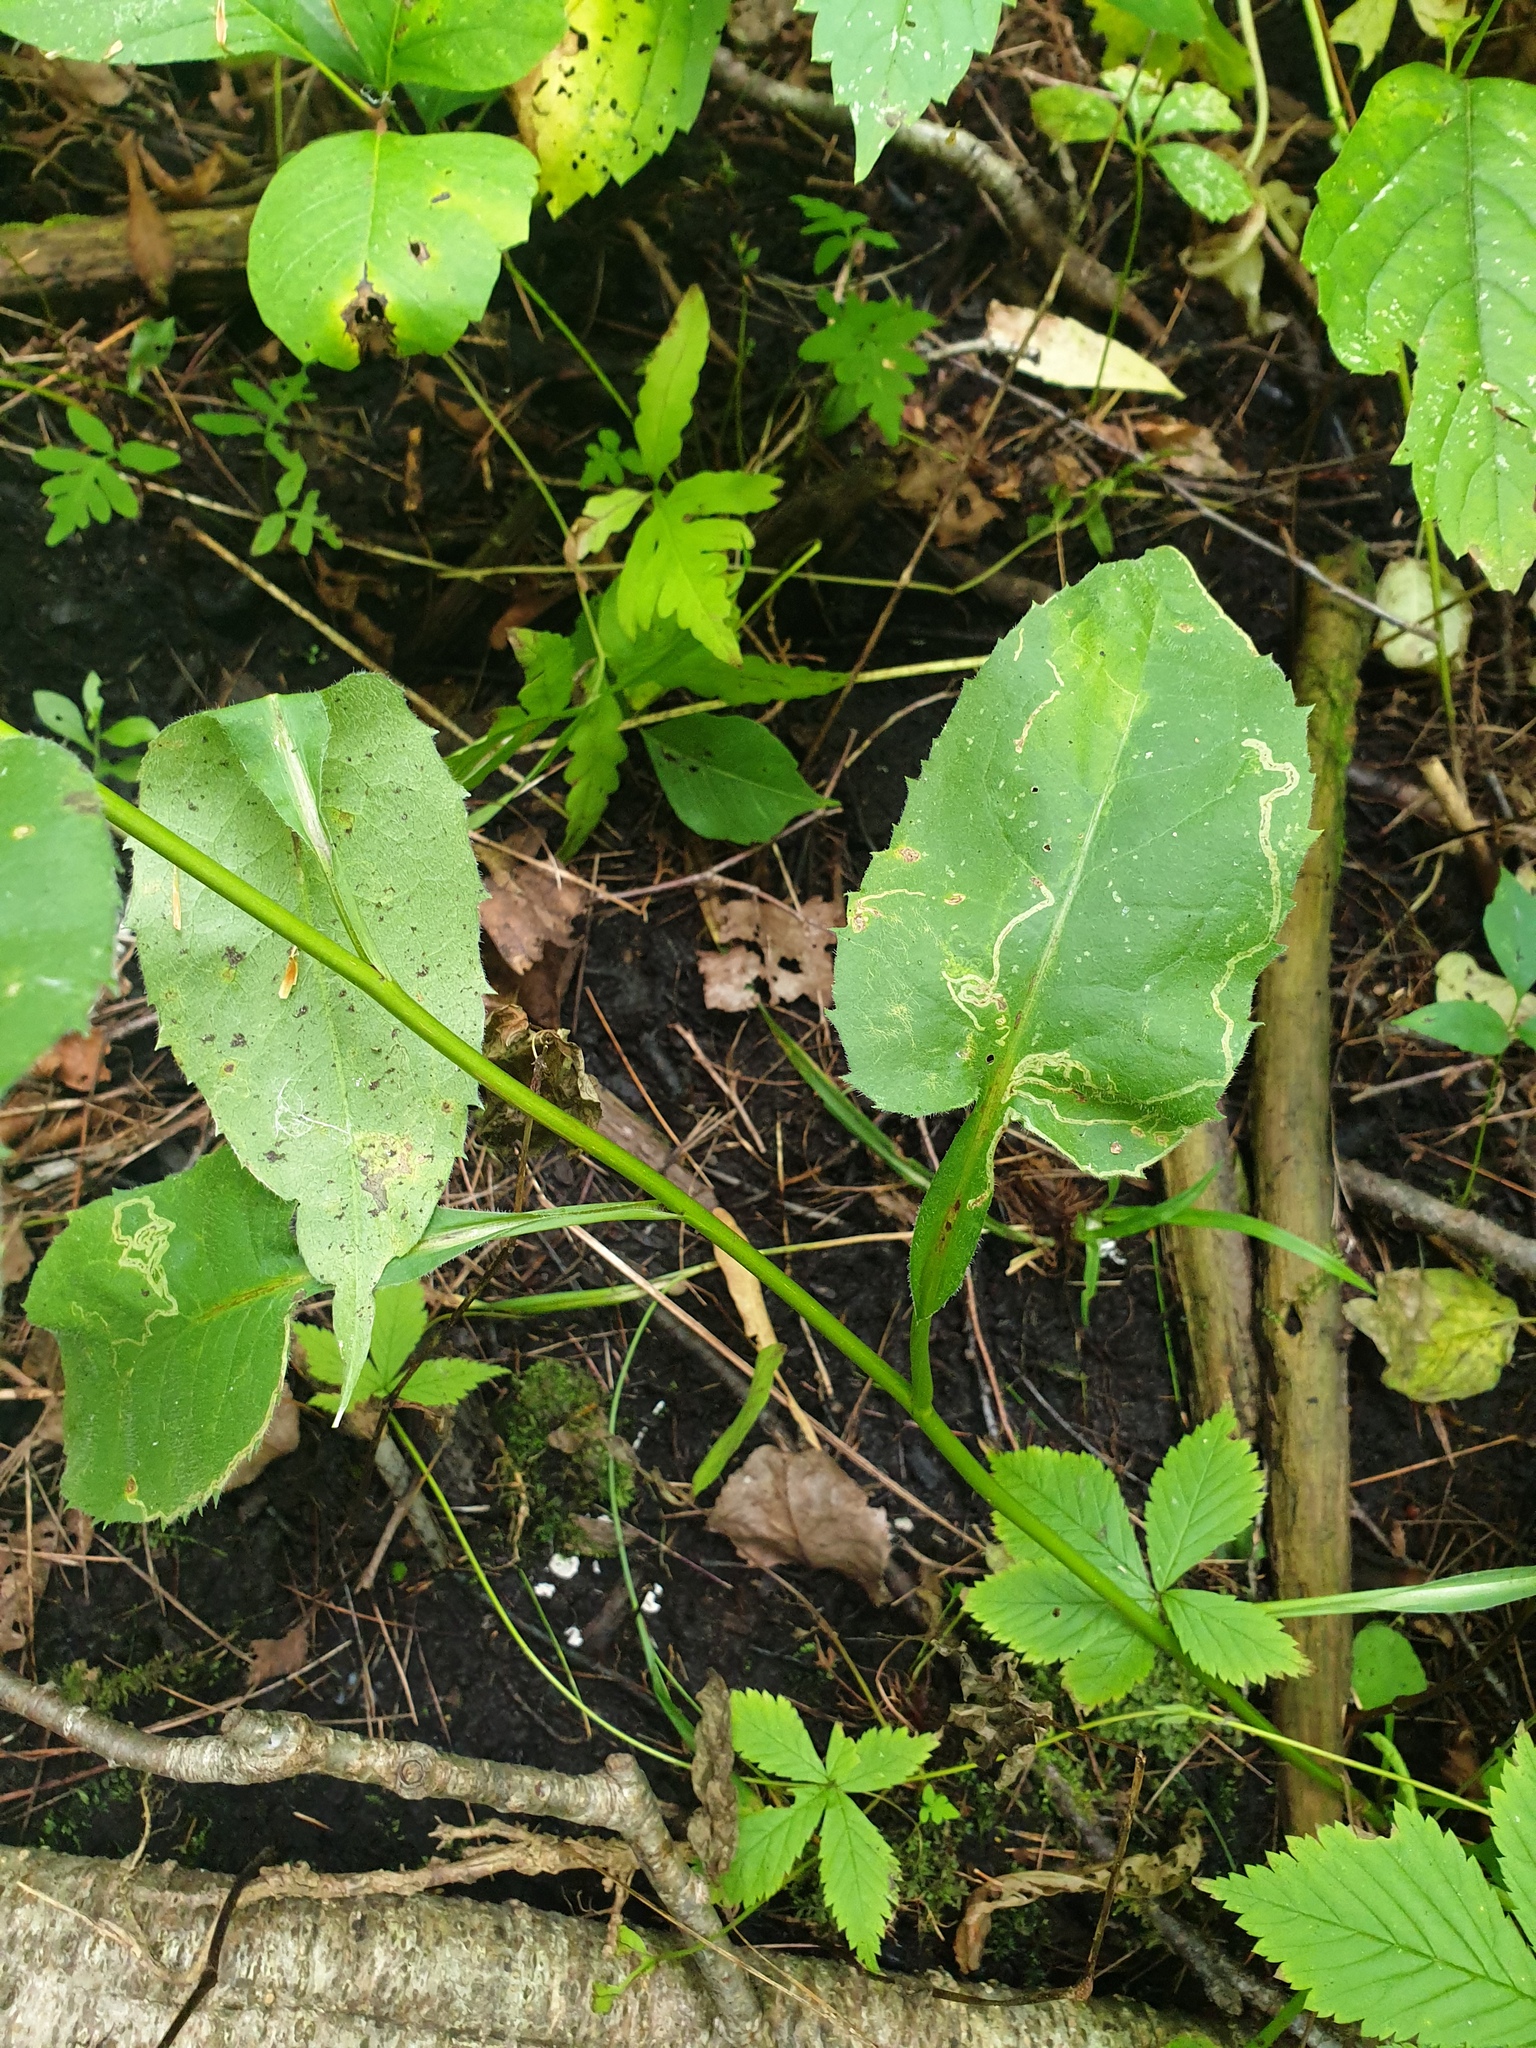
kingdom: Plantae
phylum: Tracheophyta
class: Magnoliopsida
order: Asterales
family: Asteraceae
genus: Symphyotrichum
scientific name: Symphyotrichum urophyllum
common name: Arrow-leaved aster
